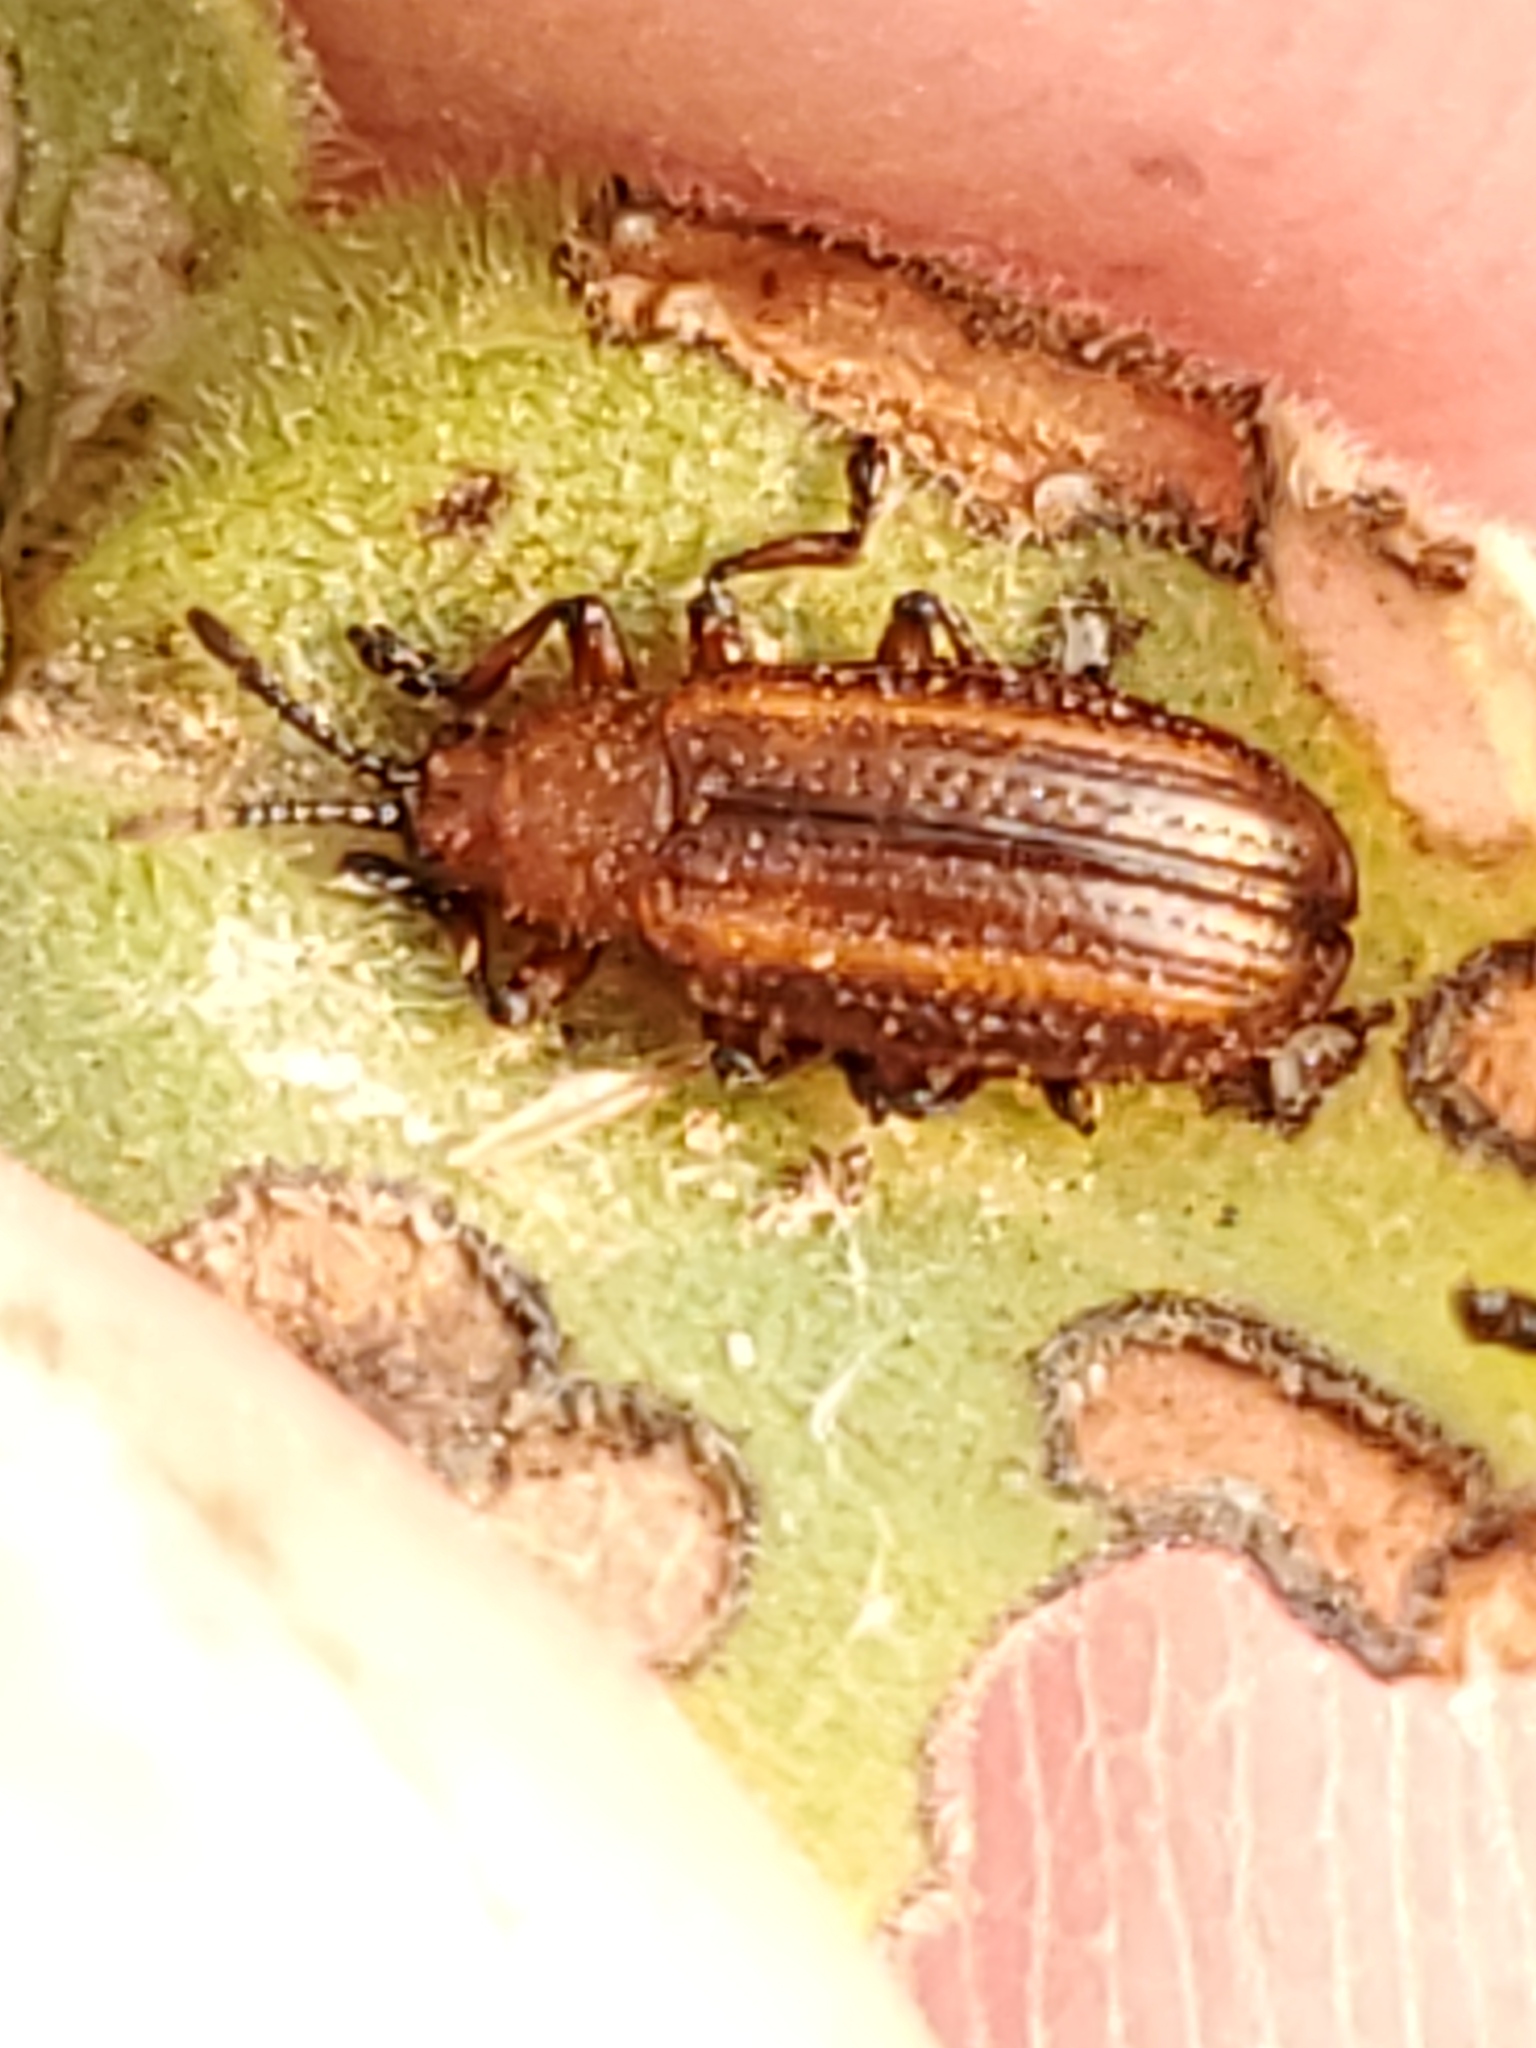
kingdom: Animalia
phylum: Arthropoda
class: Insecta
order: Coleoptera
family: Chrysomelidae
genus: Microrhopala
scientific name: Microrhopala vittata
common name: Goldenrod leaf miner beetle
